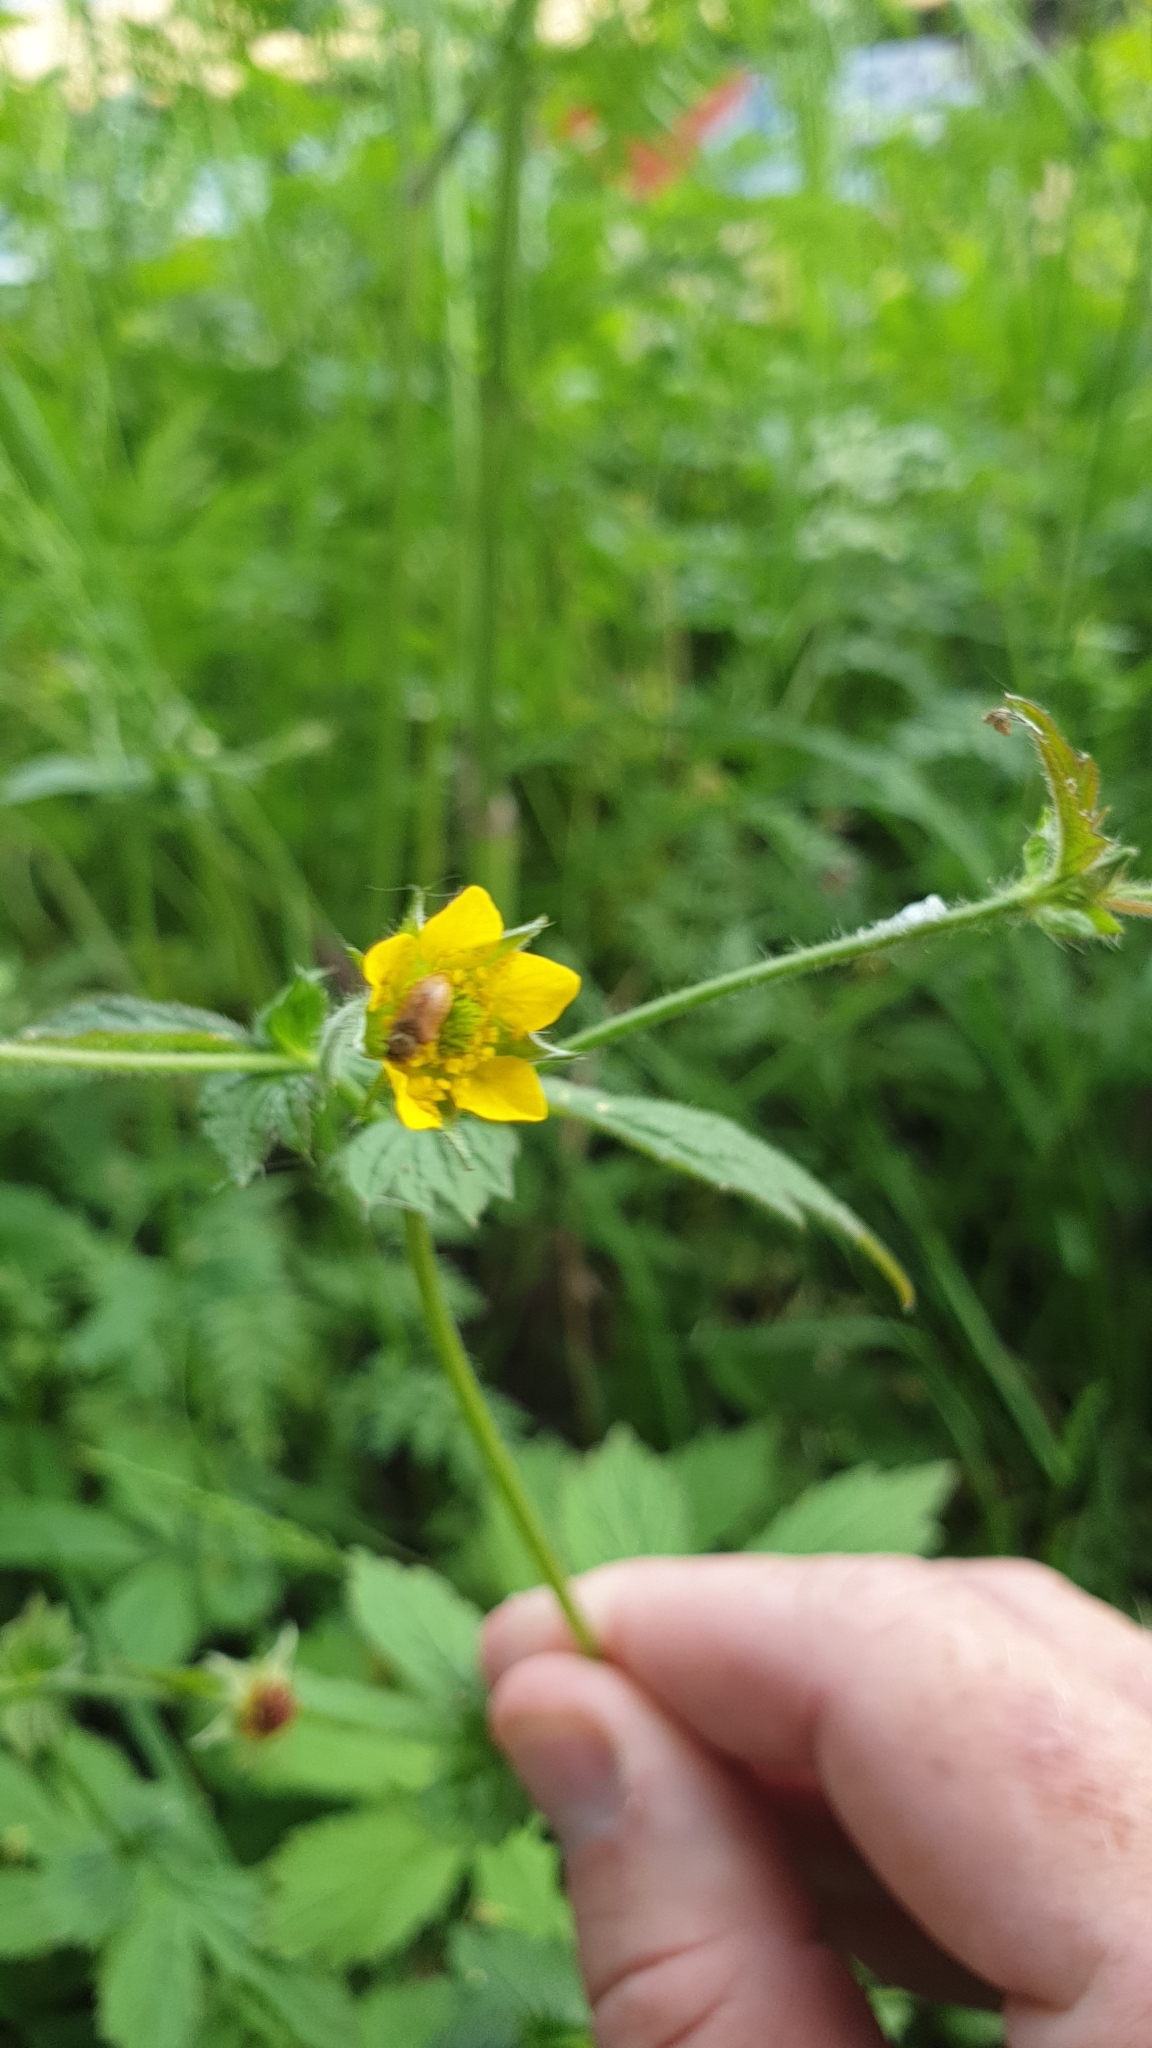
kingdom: Plantae
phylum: Tracheophyta
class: Magnoliopsida
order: Rosales
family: Rosaceae
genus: Geum
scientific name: Geum urbanum
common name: Wood avens
